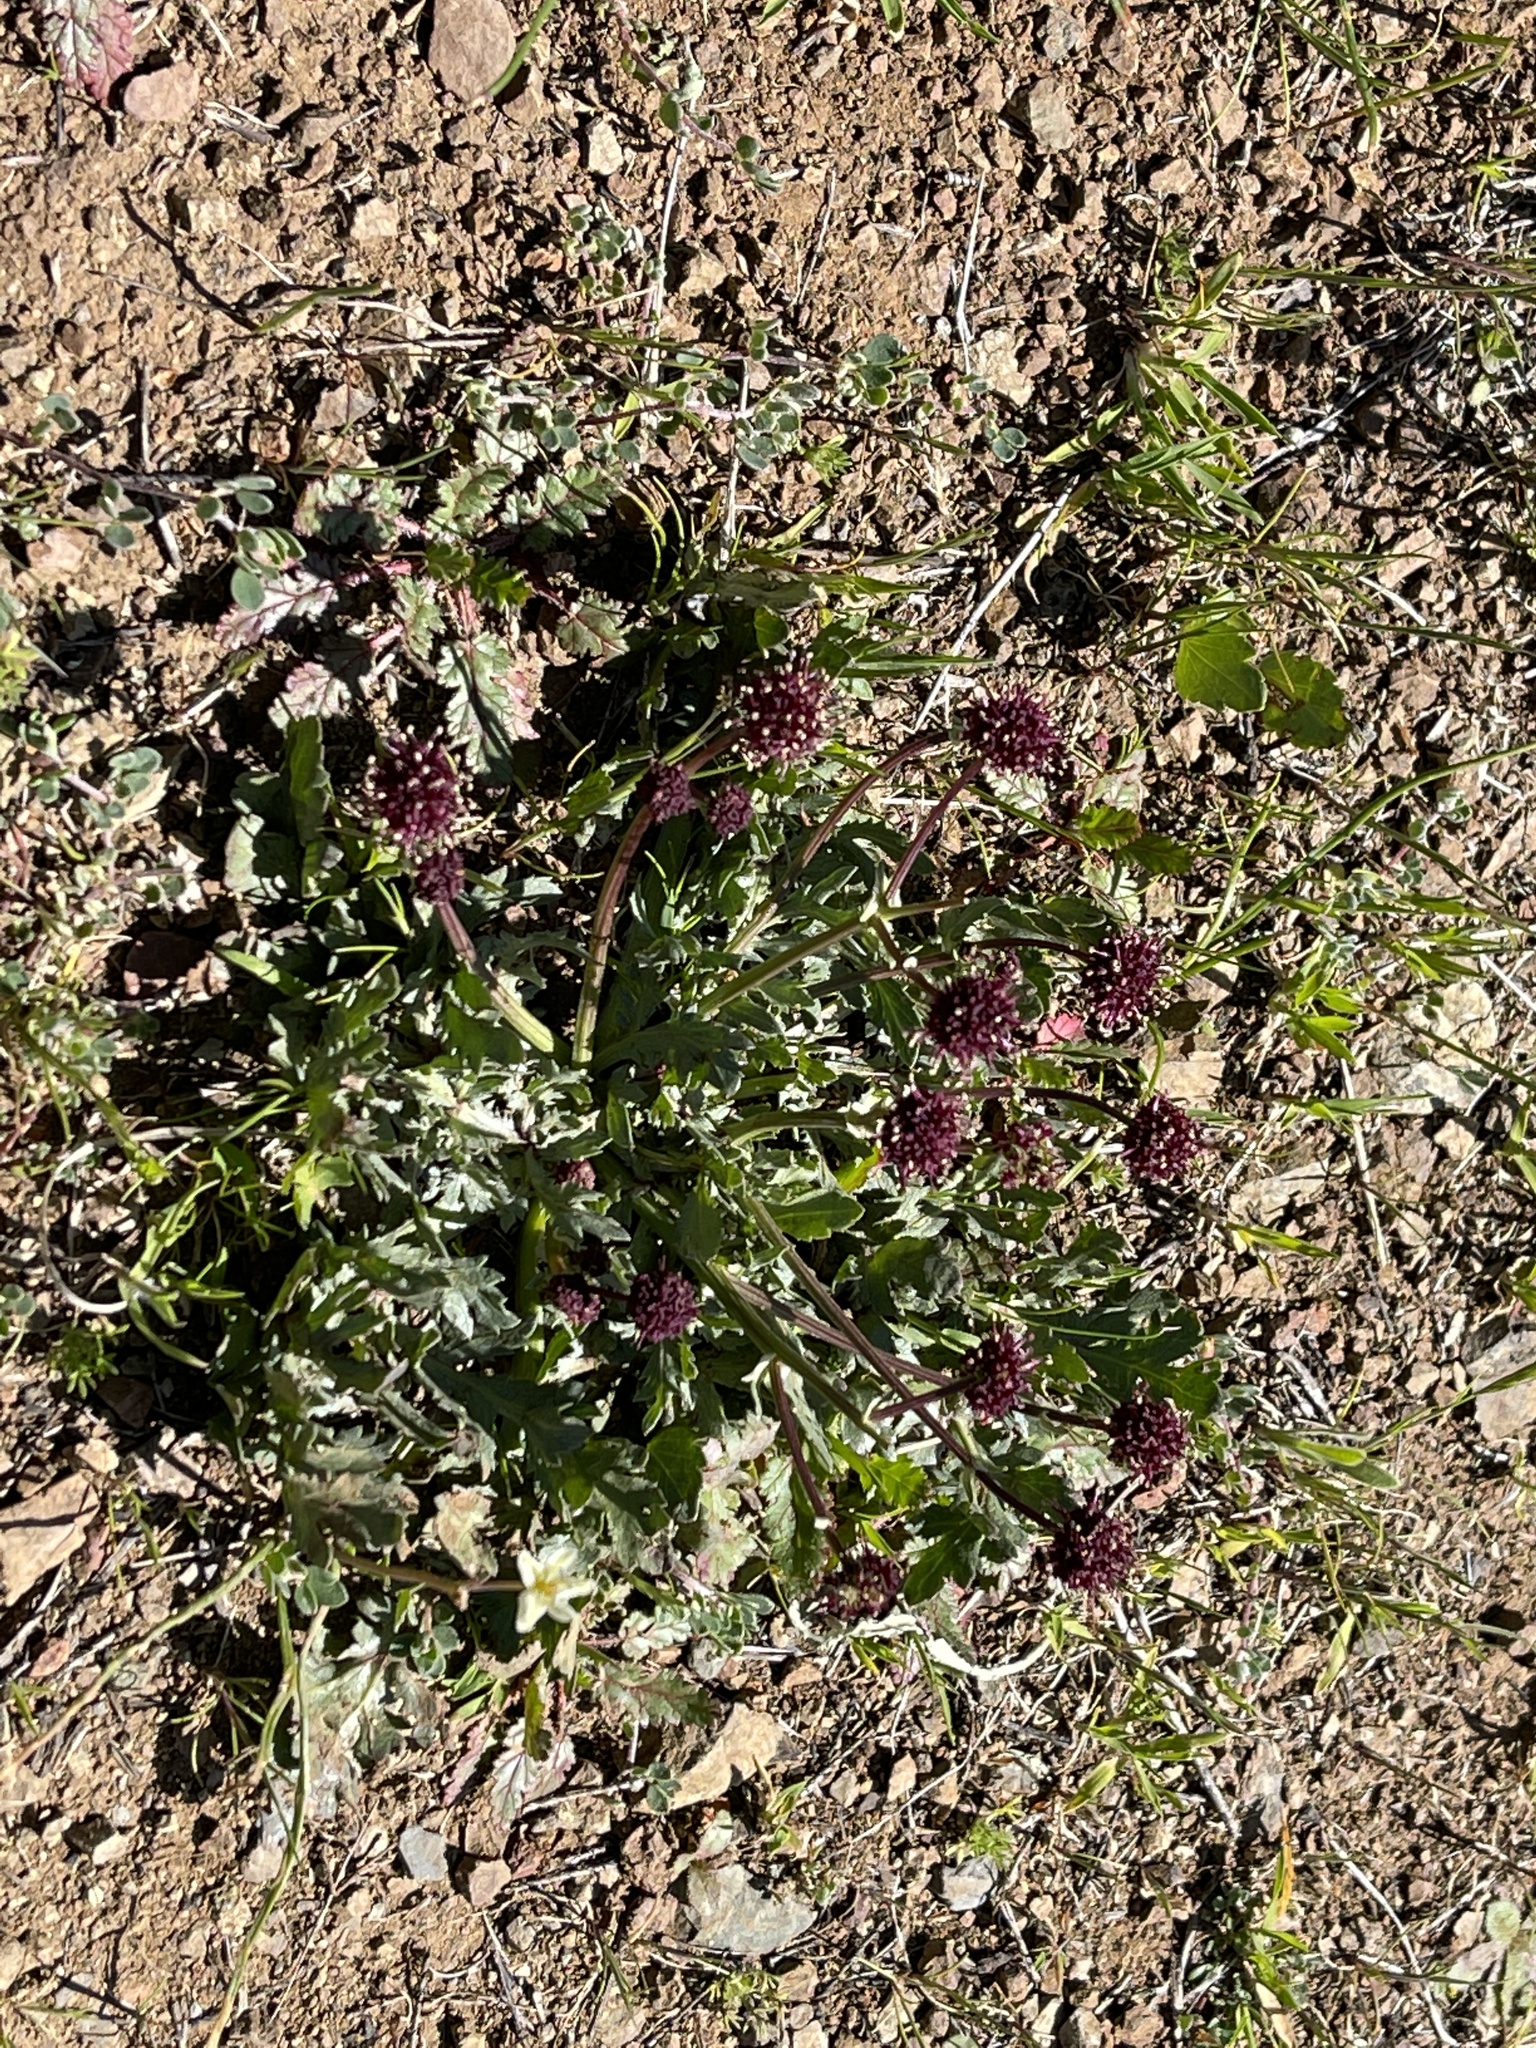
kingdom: Plantae
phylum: Tracheophyta
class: Magnoliopsida
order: Apiales
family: Apiaceae
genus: Sanicula
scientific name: Sanicula bipinnatifida
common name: Shoe-buttons
